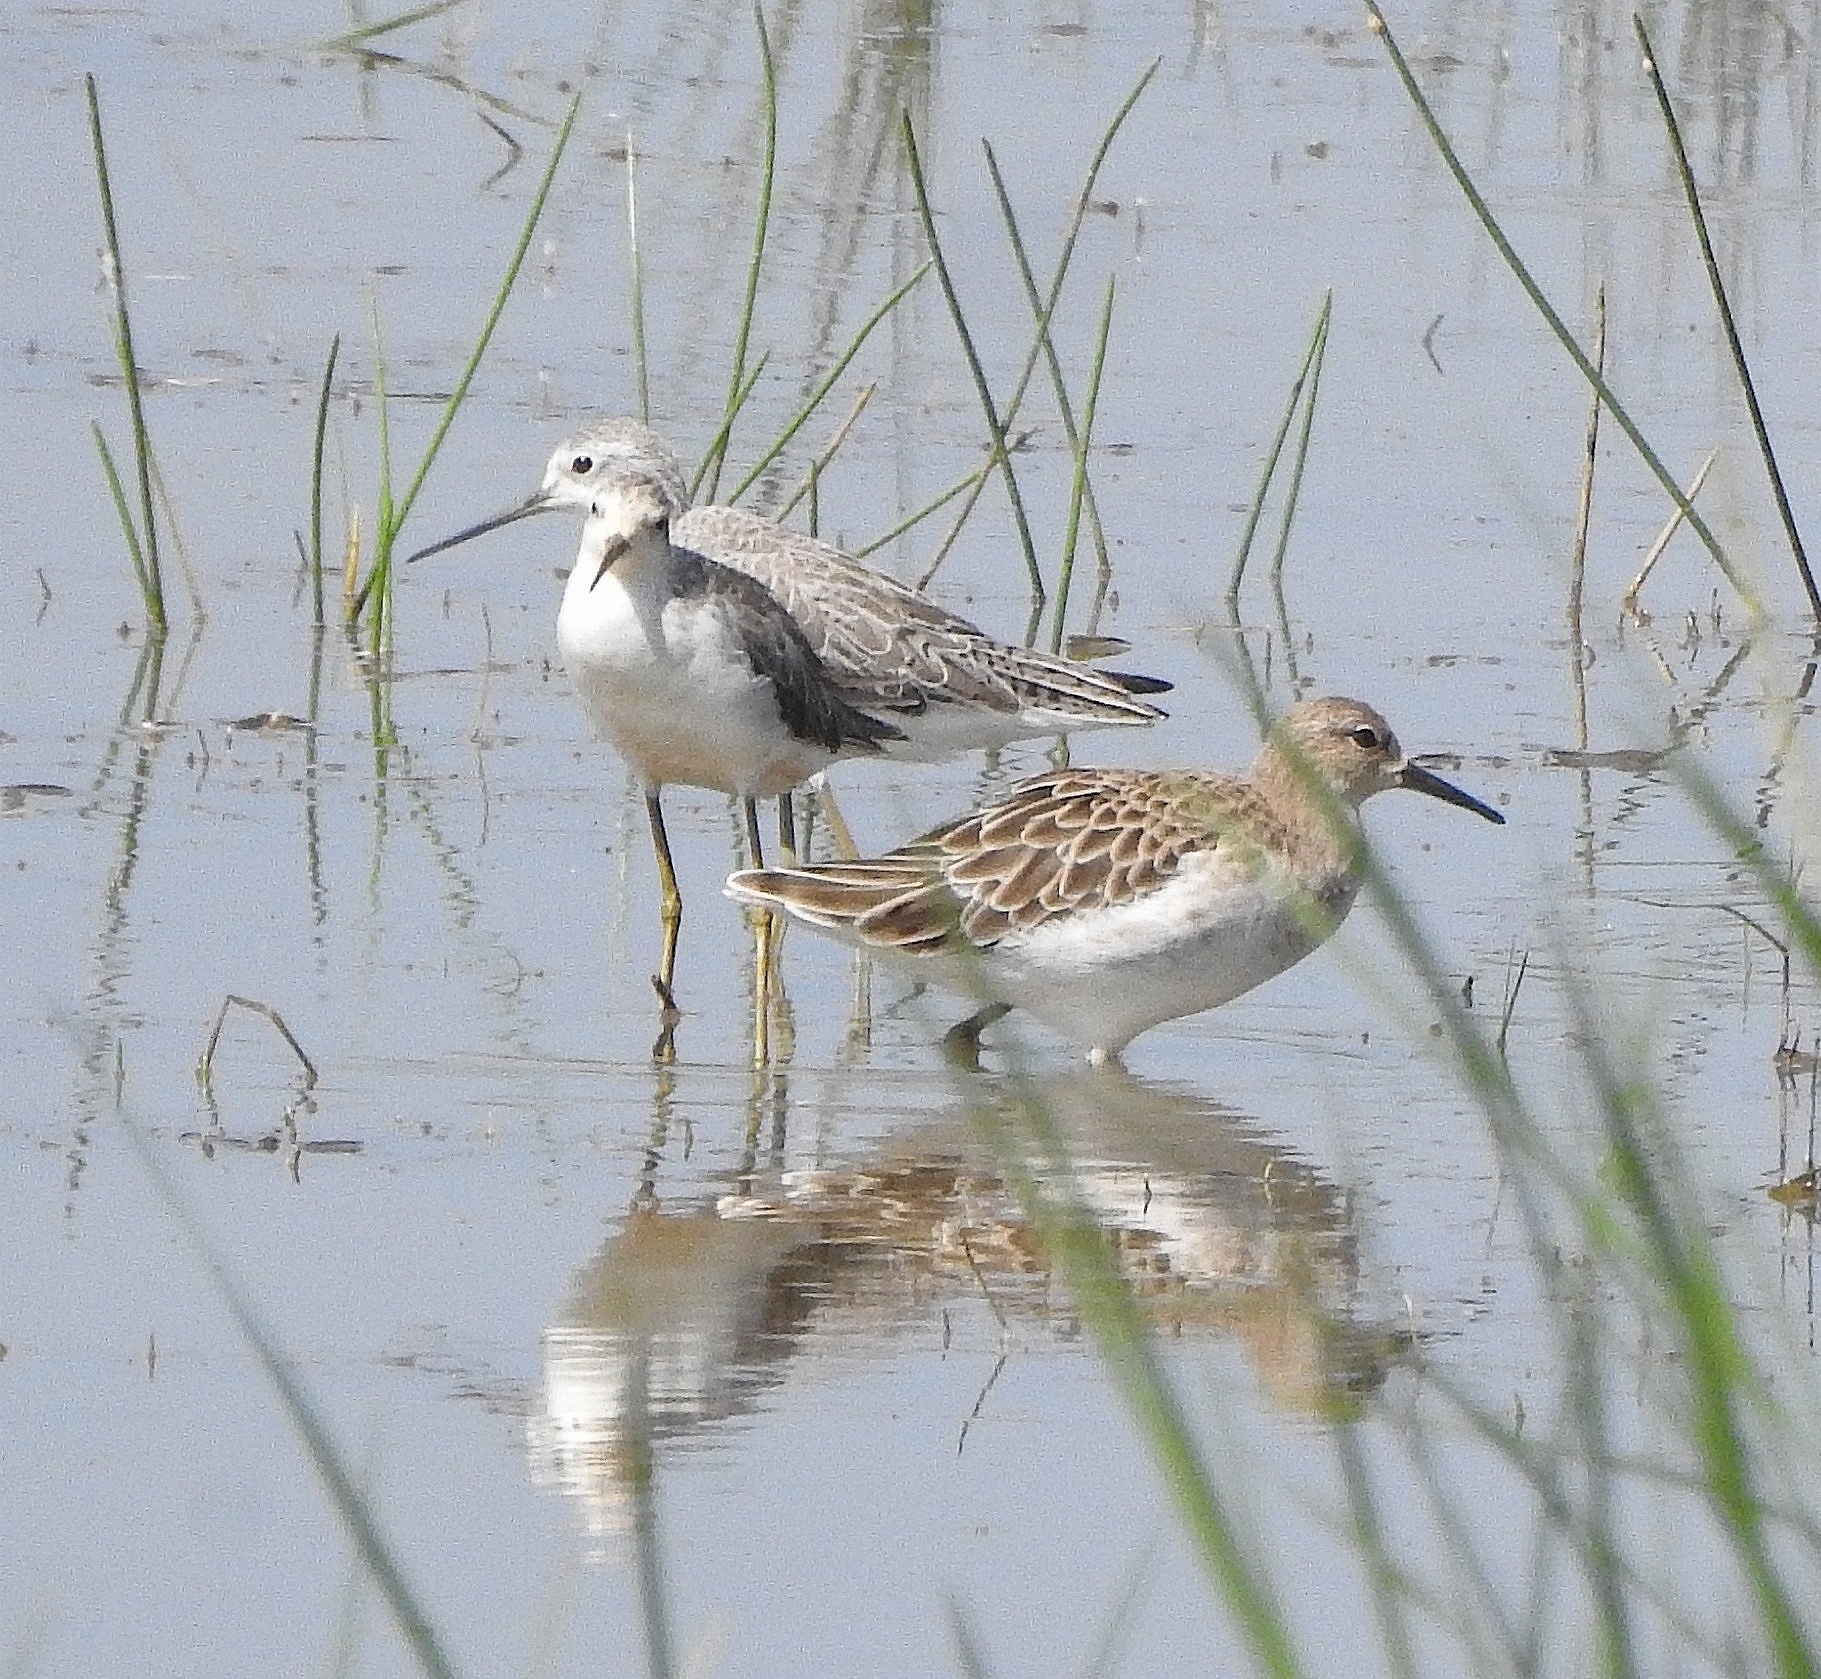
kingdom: Animalia
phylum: Chordata
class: Aves
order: Charadriiformes
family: Scolopacidae
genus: Tringa
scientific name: Tringa stagnatilis
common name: Marsh sandpiper
